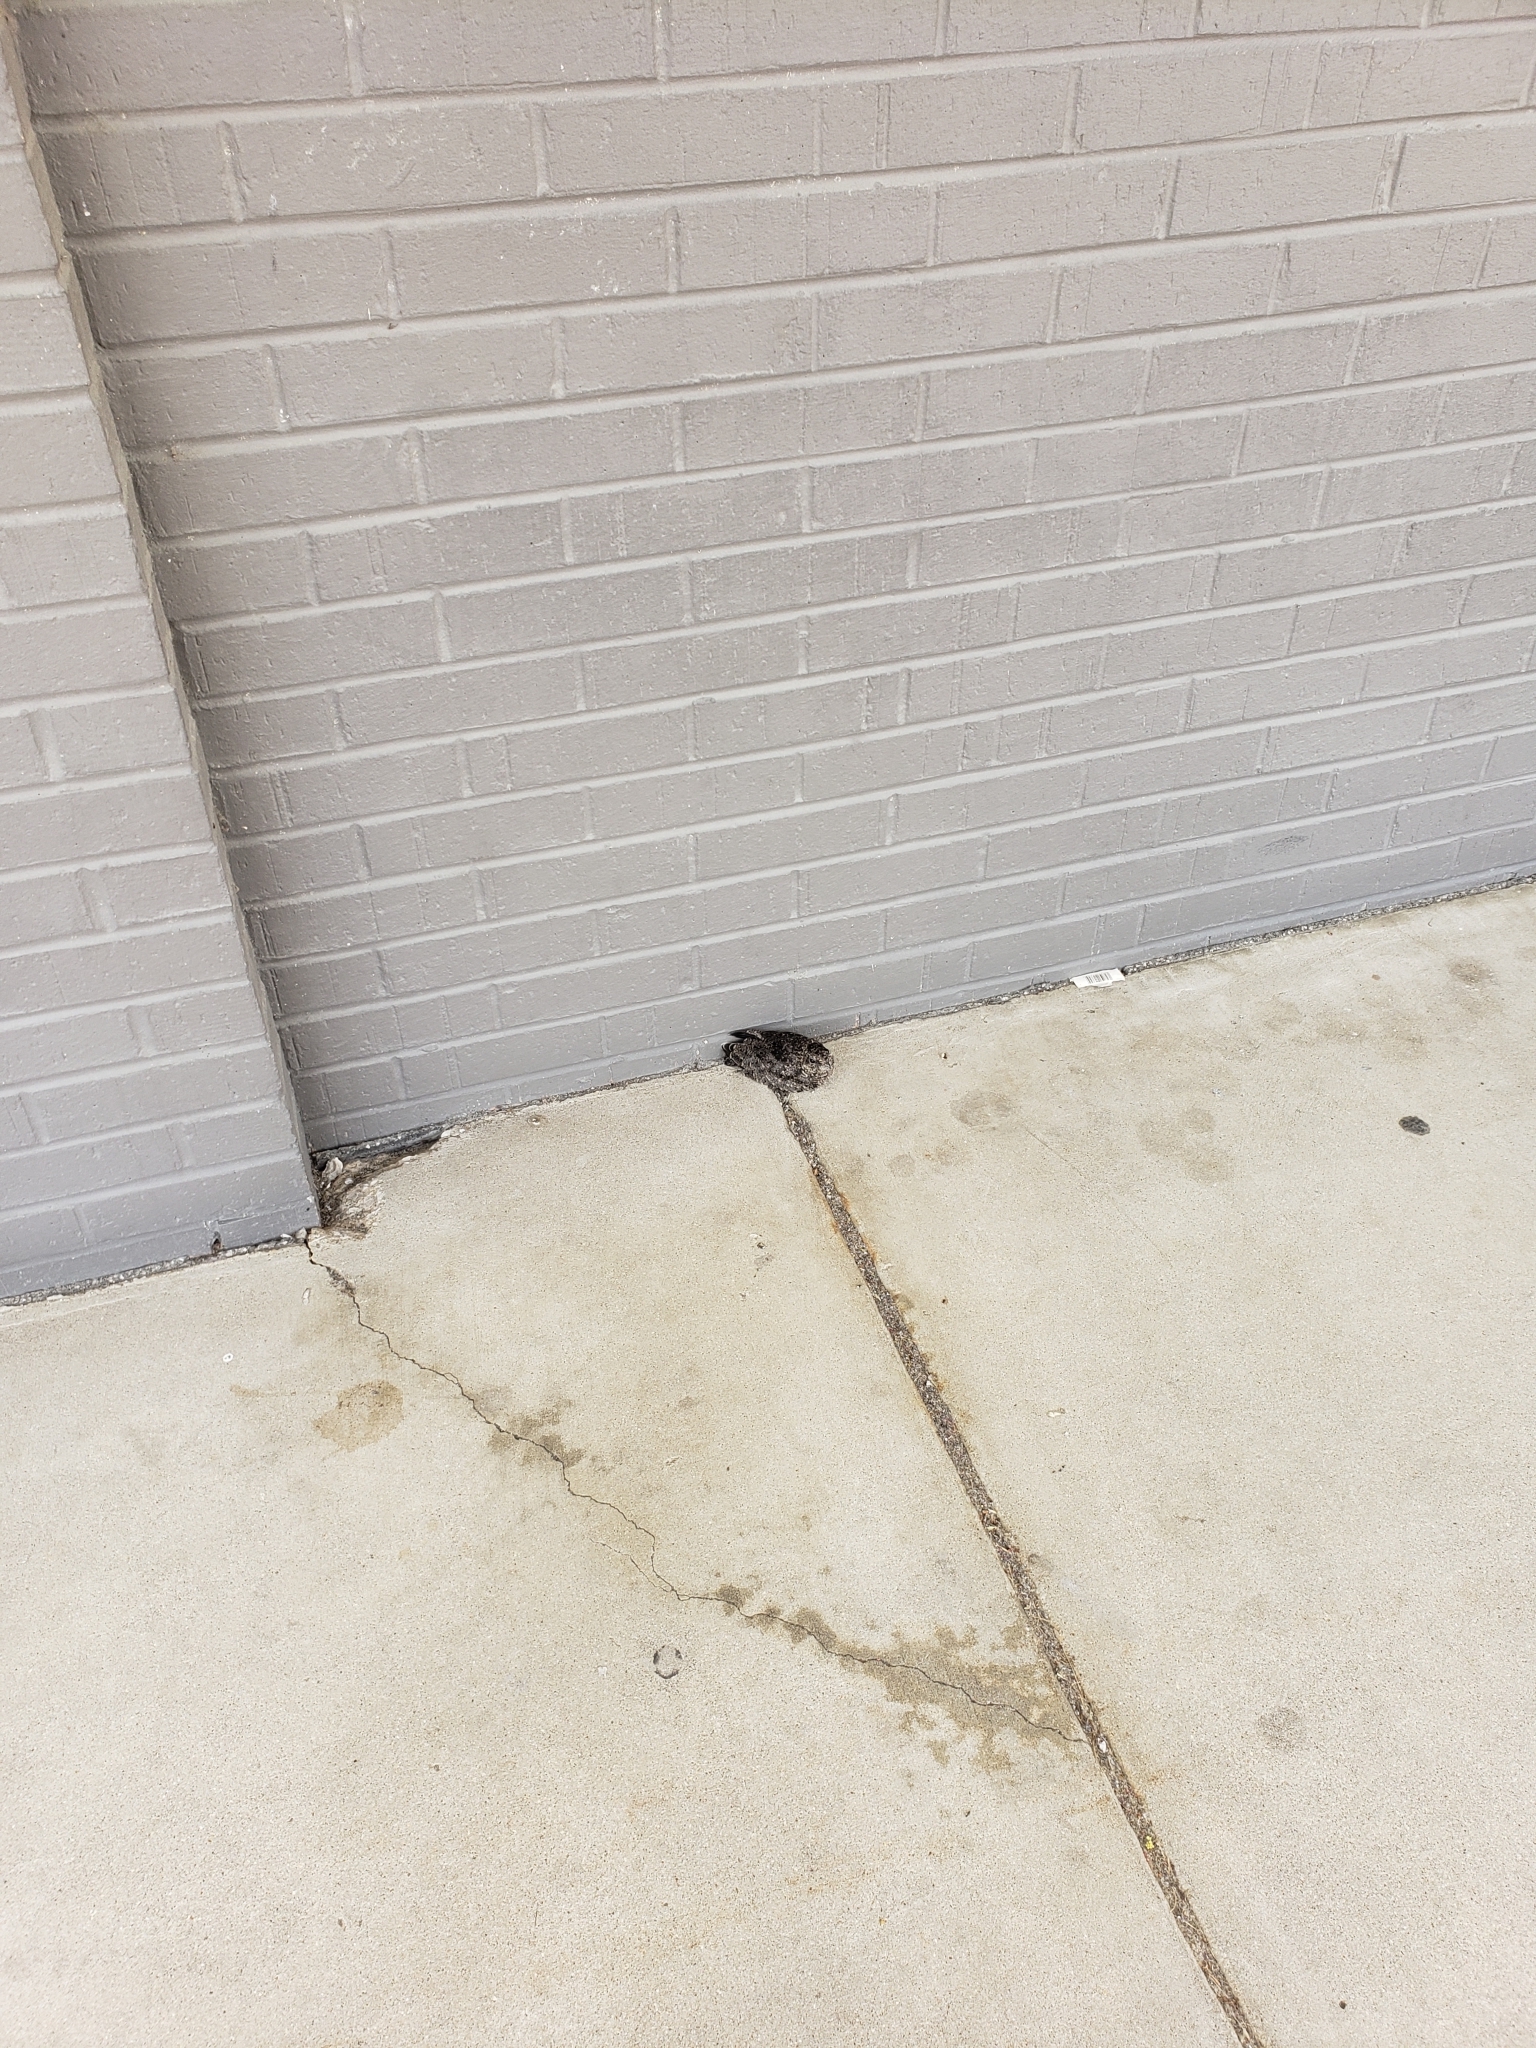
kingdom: Animalia
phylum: Chordata
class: Aves
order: Caprimulgiformes
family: Caprimulgidae
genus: Chordeiles
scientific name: Chordeiles minor
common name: Common nighthawk
